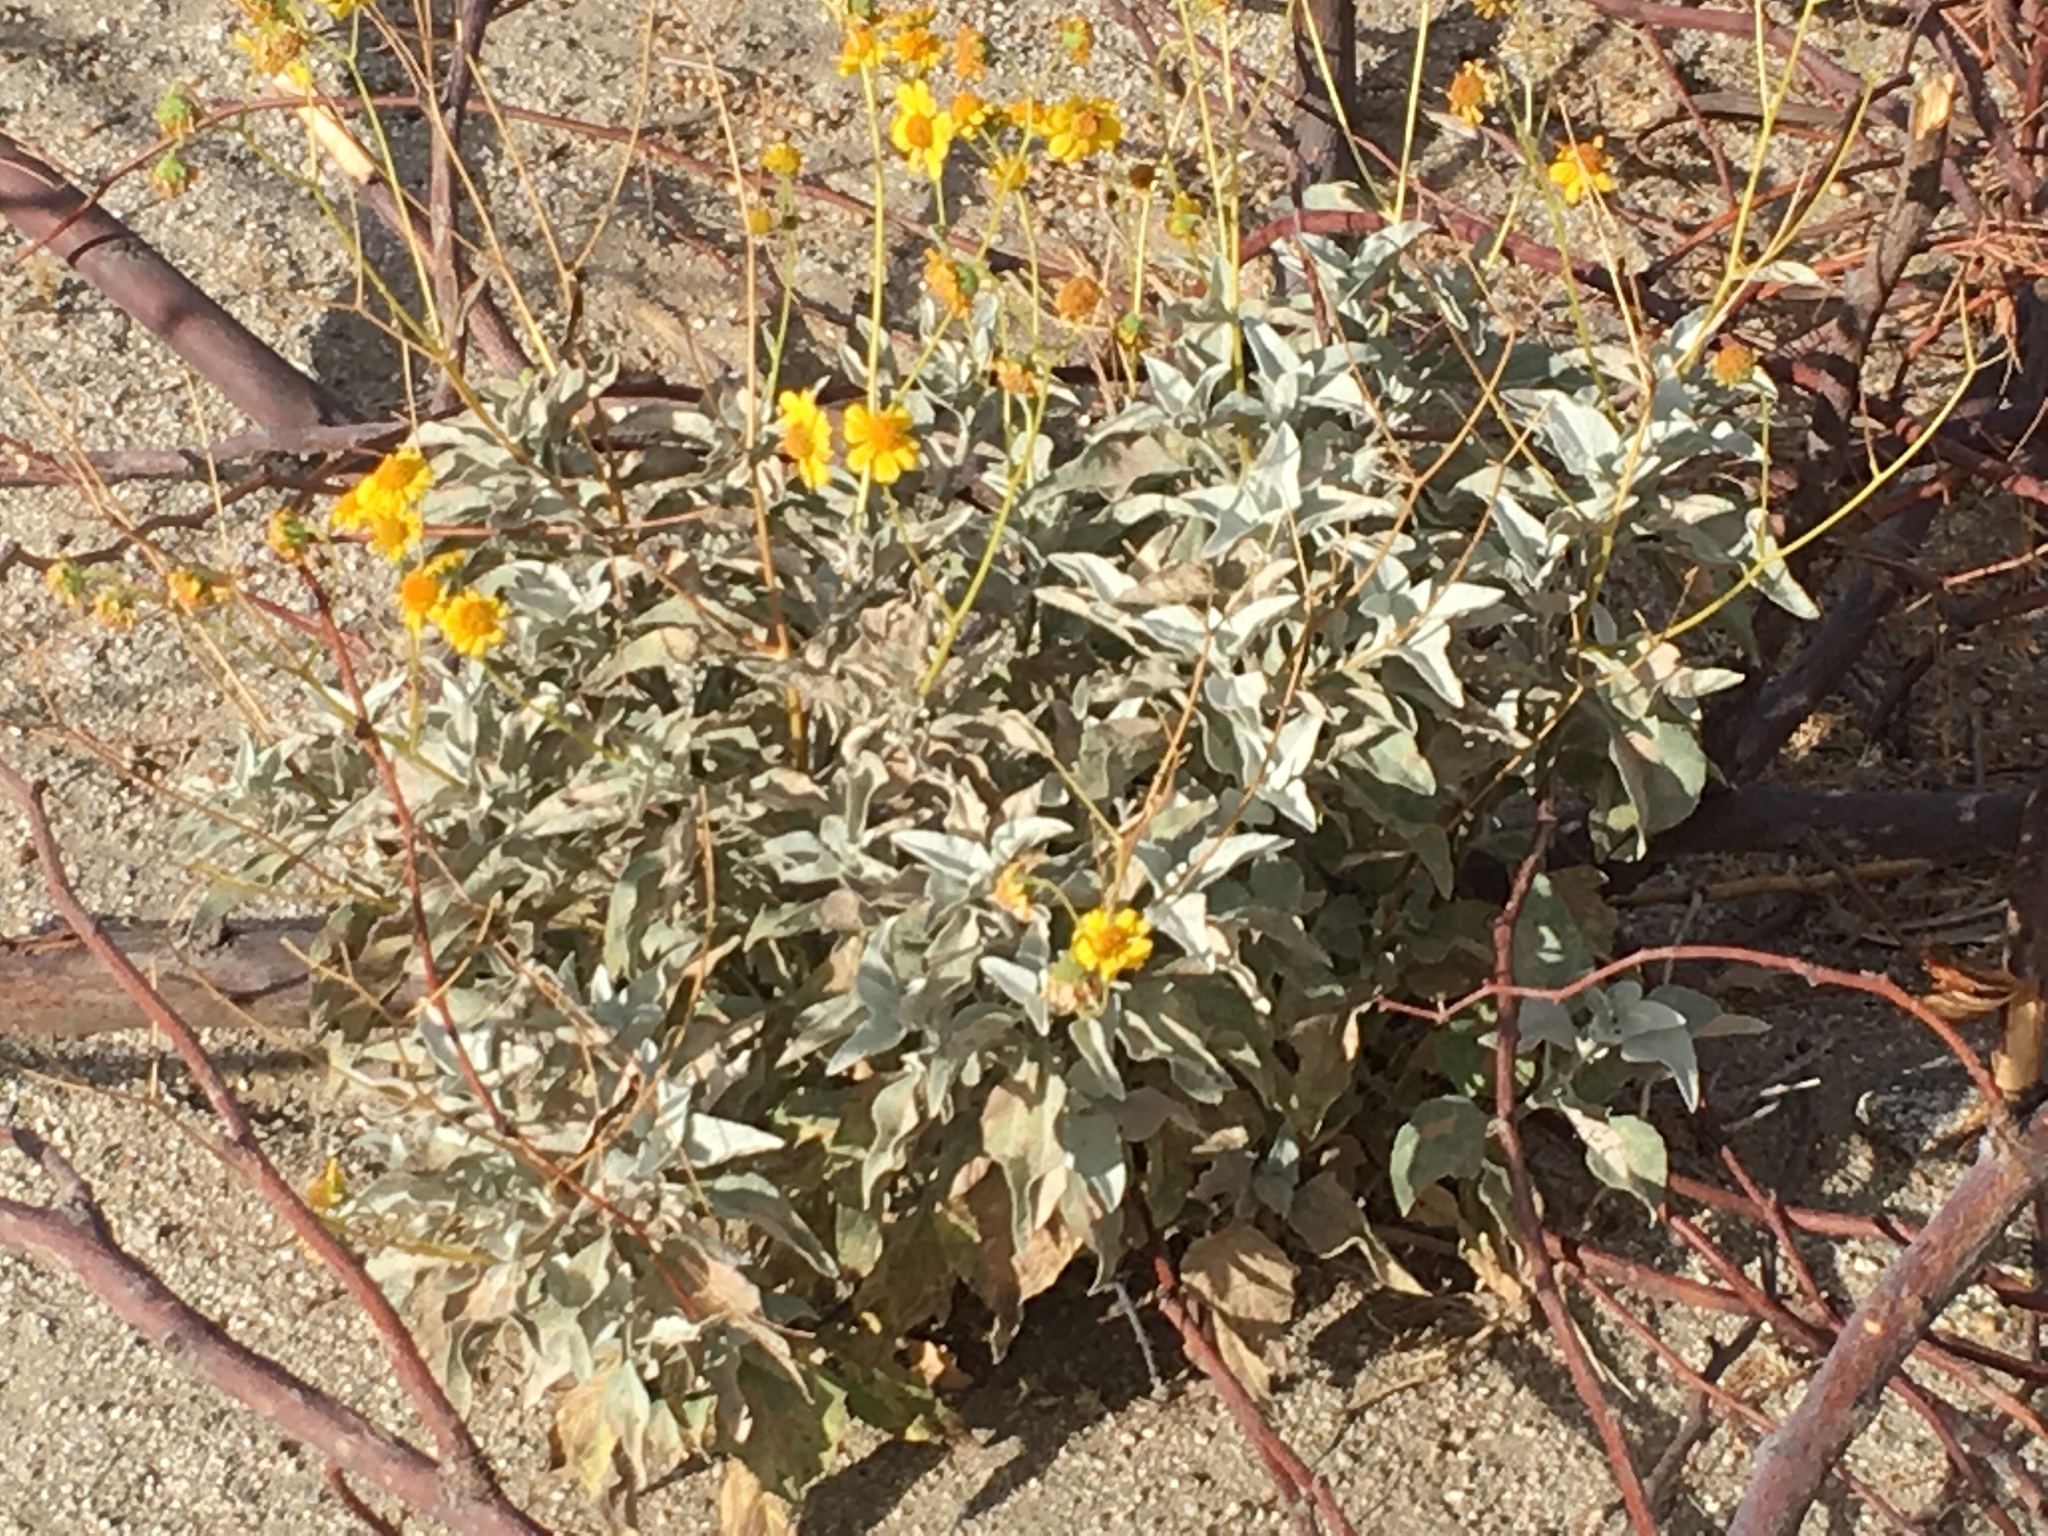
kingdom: Plantae
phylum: Tracheophyta
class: Magnoliopsida
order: Asterales
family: Asteraceae
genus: Encelia
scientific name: Encelia farinosa
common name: Brittlebush
